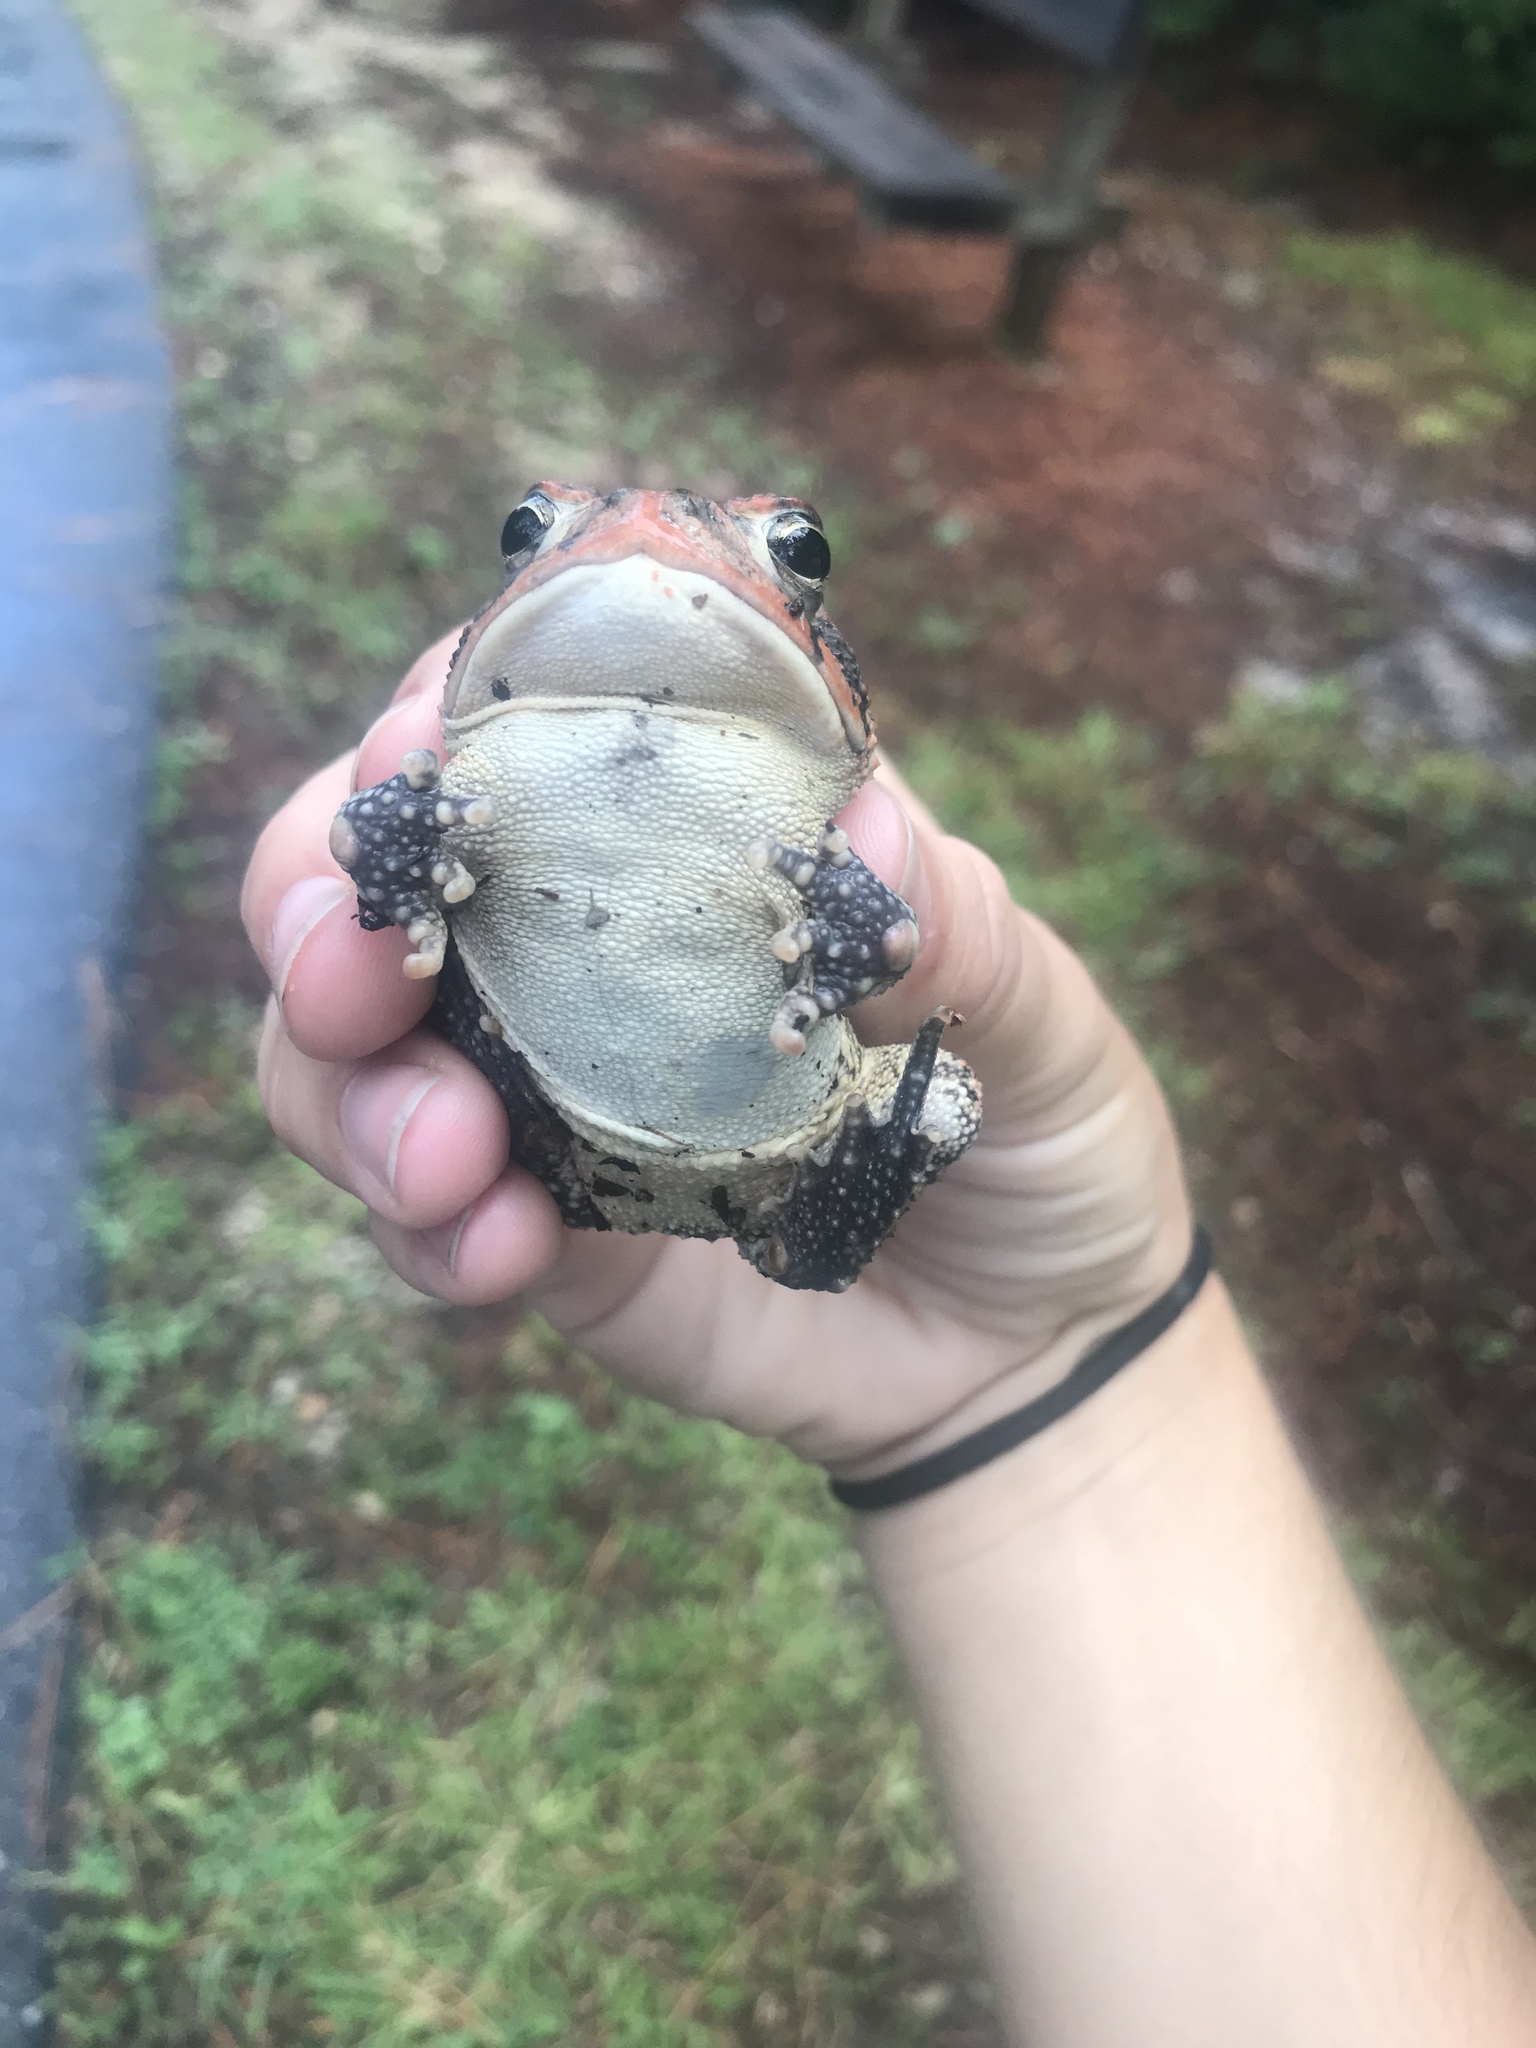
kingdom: Animalia
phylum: Chordata
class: Amphibia
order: Anura
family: Bufonidae
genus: Anaxyrus
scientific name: Anaxyrus terrestris
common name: Southern toad
